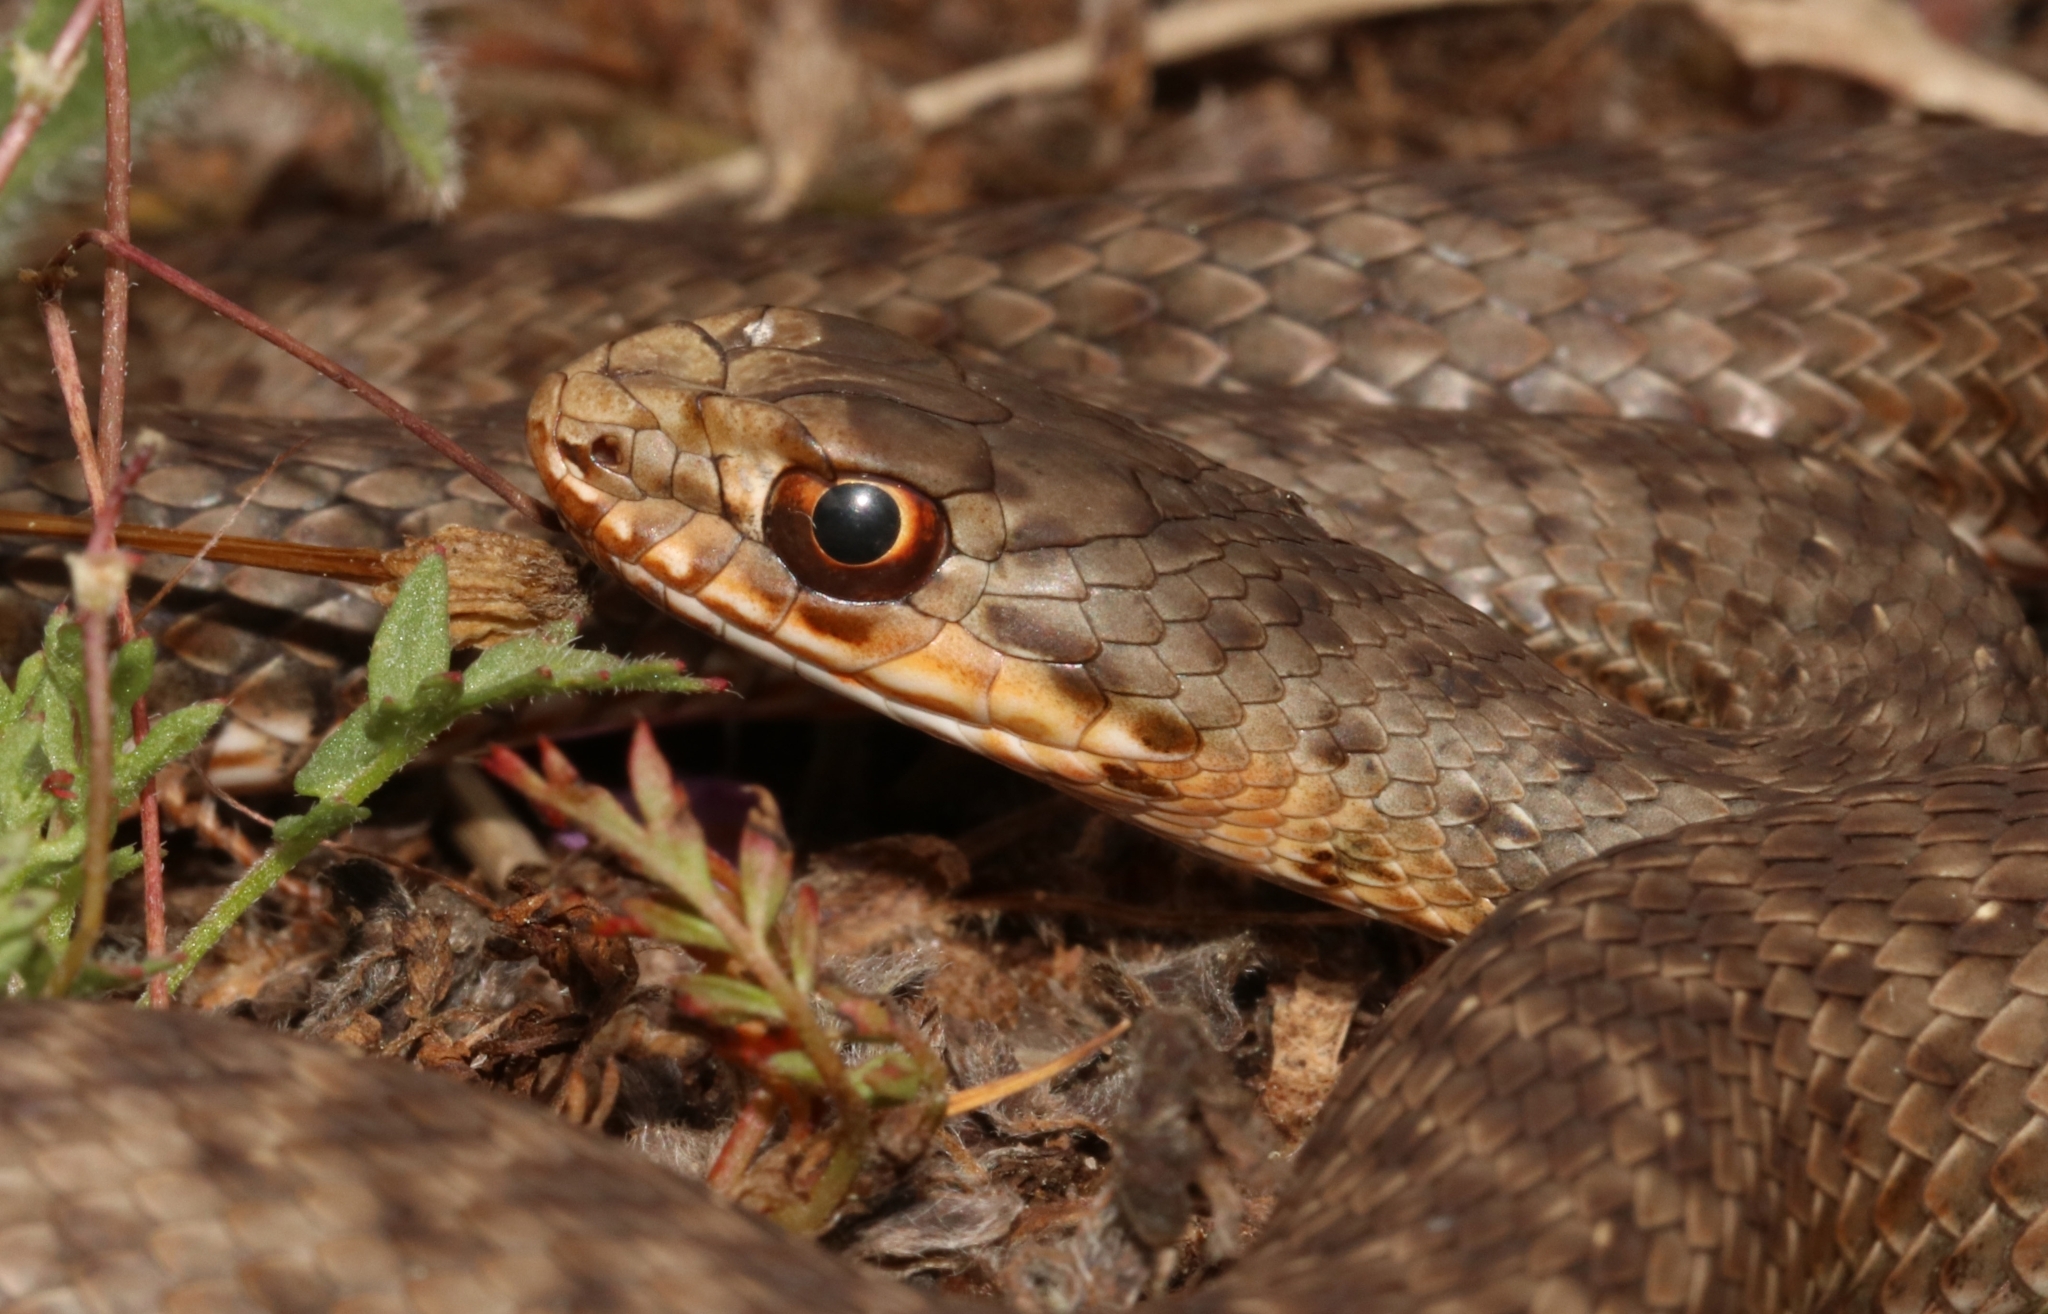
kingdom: Animalia
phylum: Chordata
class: Squamata
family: Psammophiidae
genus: Malpolon
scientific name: Malpolon insignitus
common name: Eastern montpellier snake
